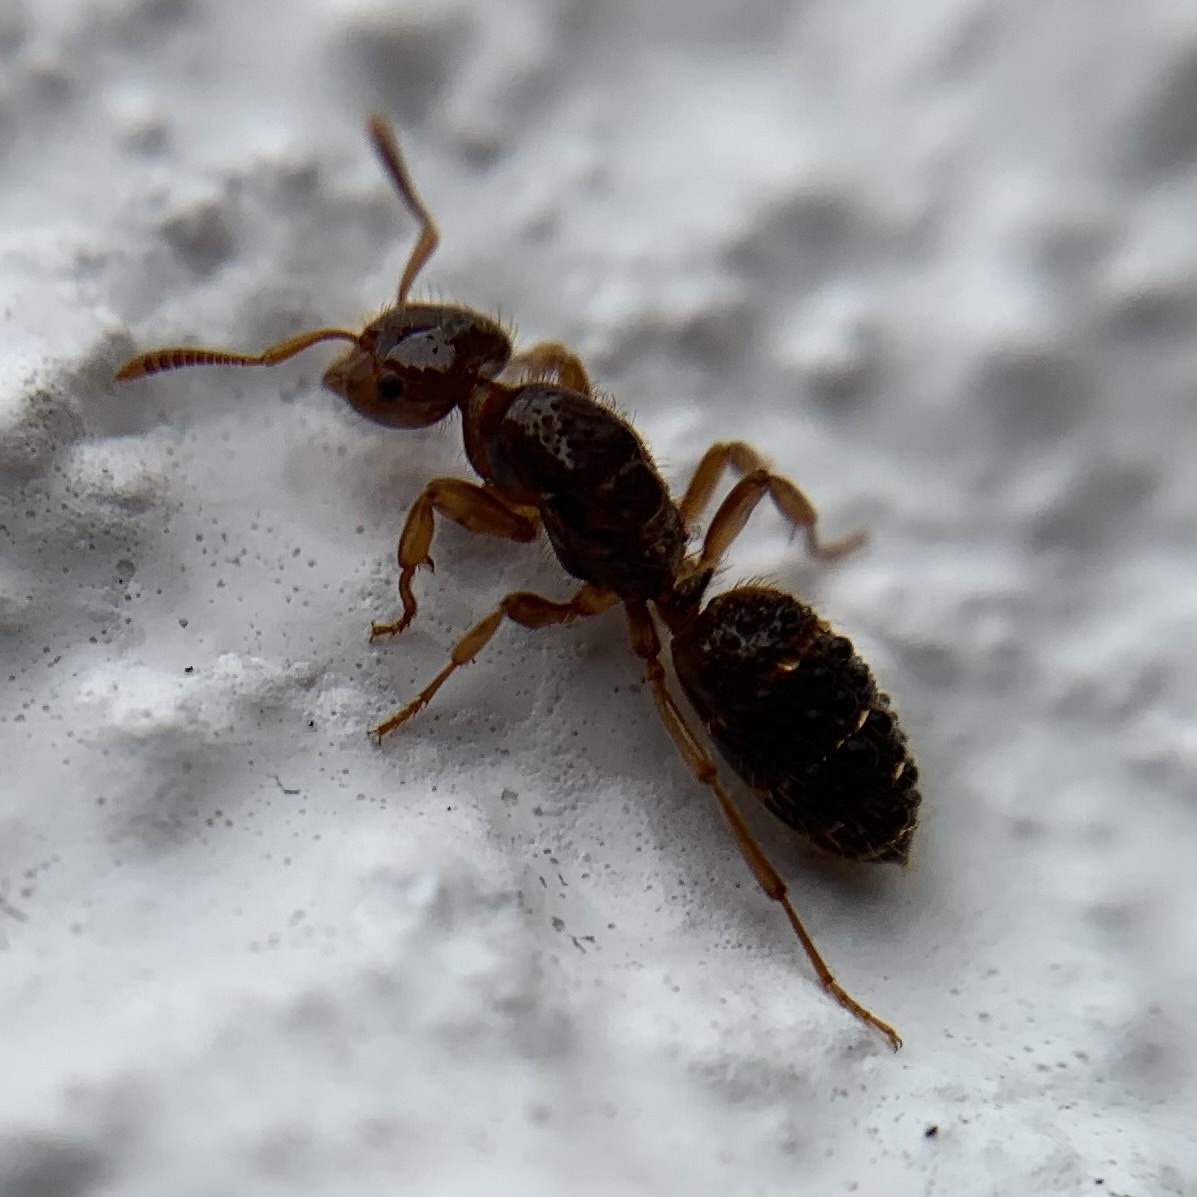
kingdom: Animalia
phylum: Arthropoda
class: Insecta
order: Hymenoptera
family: Formicidae
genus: Lasius
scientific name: Lasius claviger
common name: Common citronella ant
